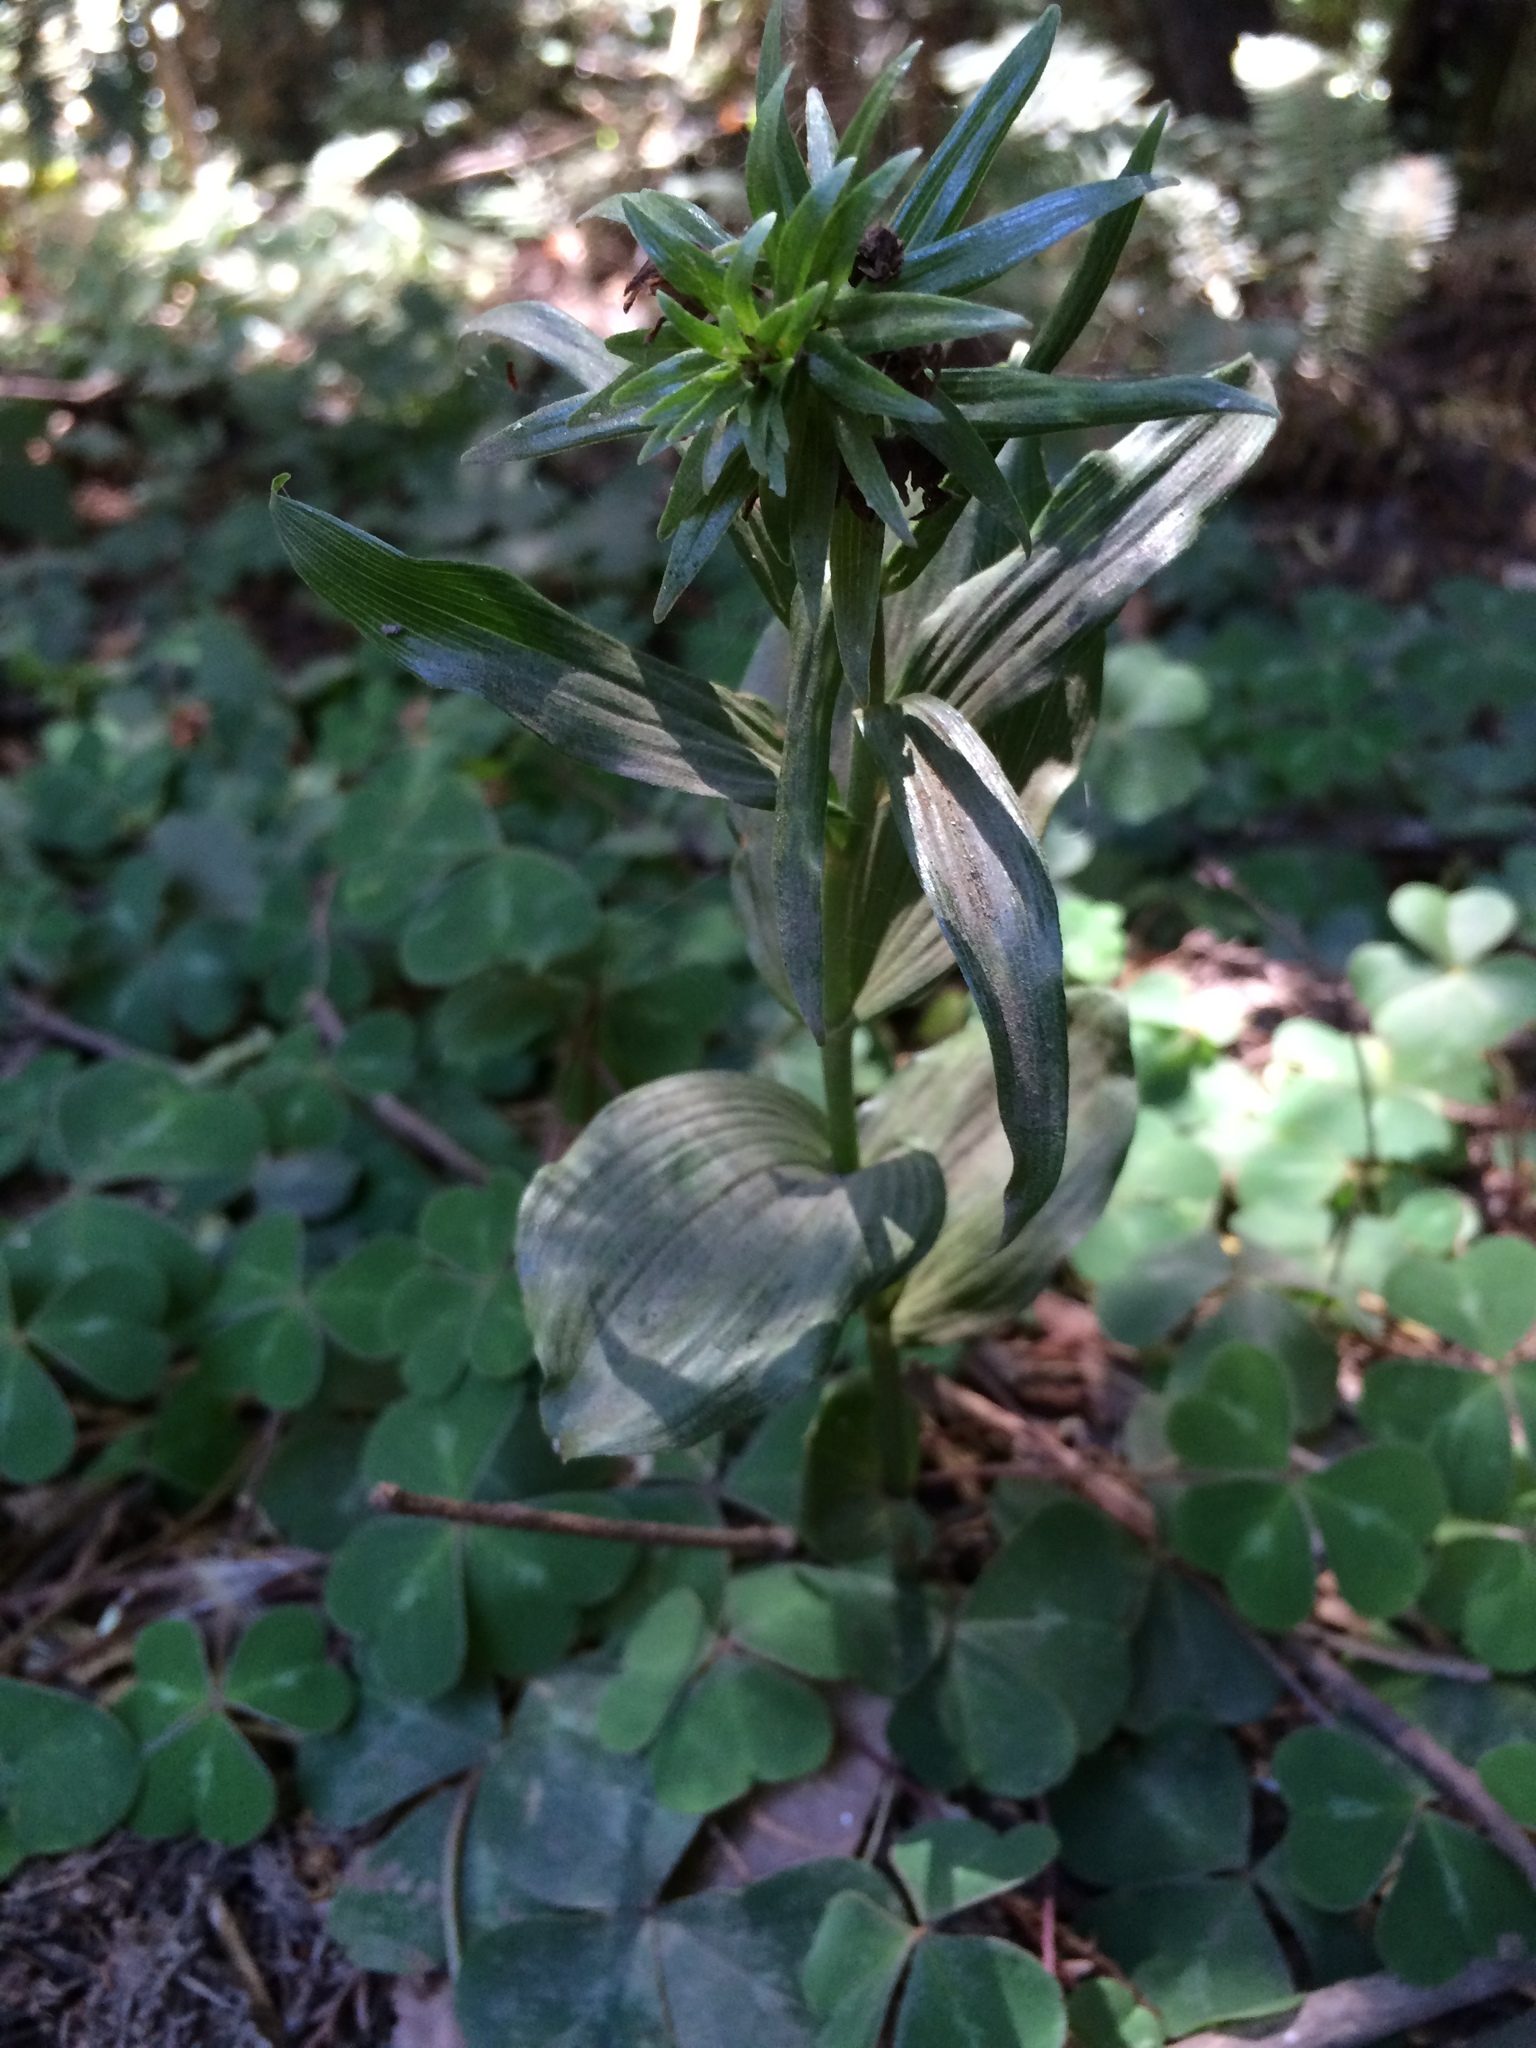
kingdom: Plantae
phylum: Tracheophyta
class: Liliopsida
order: Asparagales
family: Orchidaceae
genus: Epipactis
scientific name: Epipactis helleborine
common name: Broad-leaved helleborine
